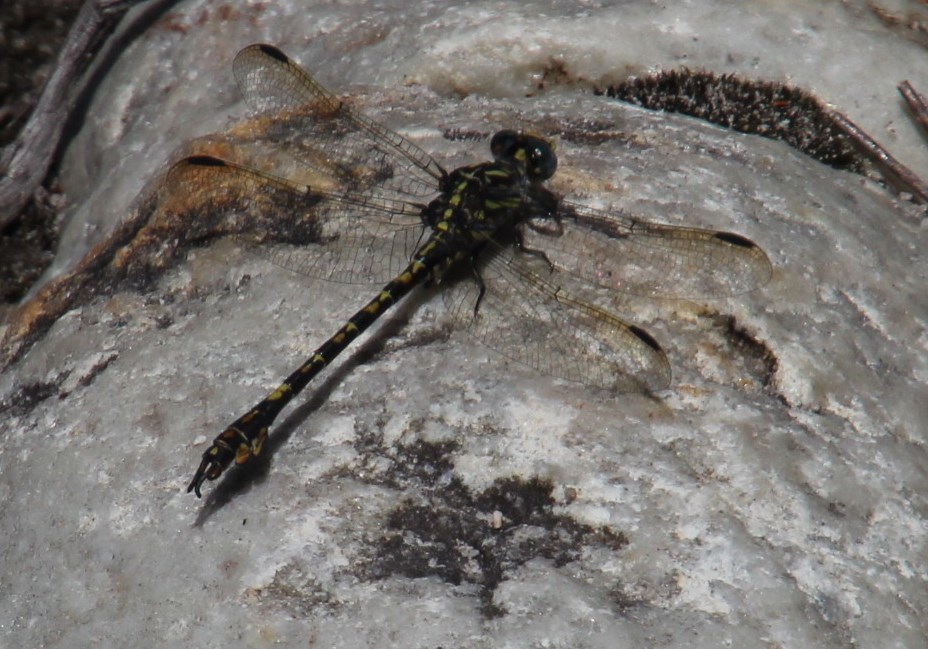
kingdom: Animalia
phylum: Arthropoda
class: Insecta
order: Odonata
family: Gomphidae
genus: Paragomphus
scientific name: Paragomphus cognatus
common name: Boulder hooktail
